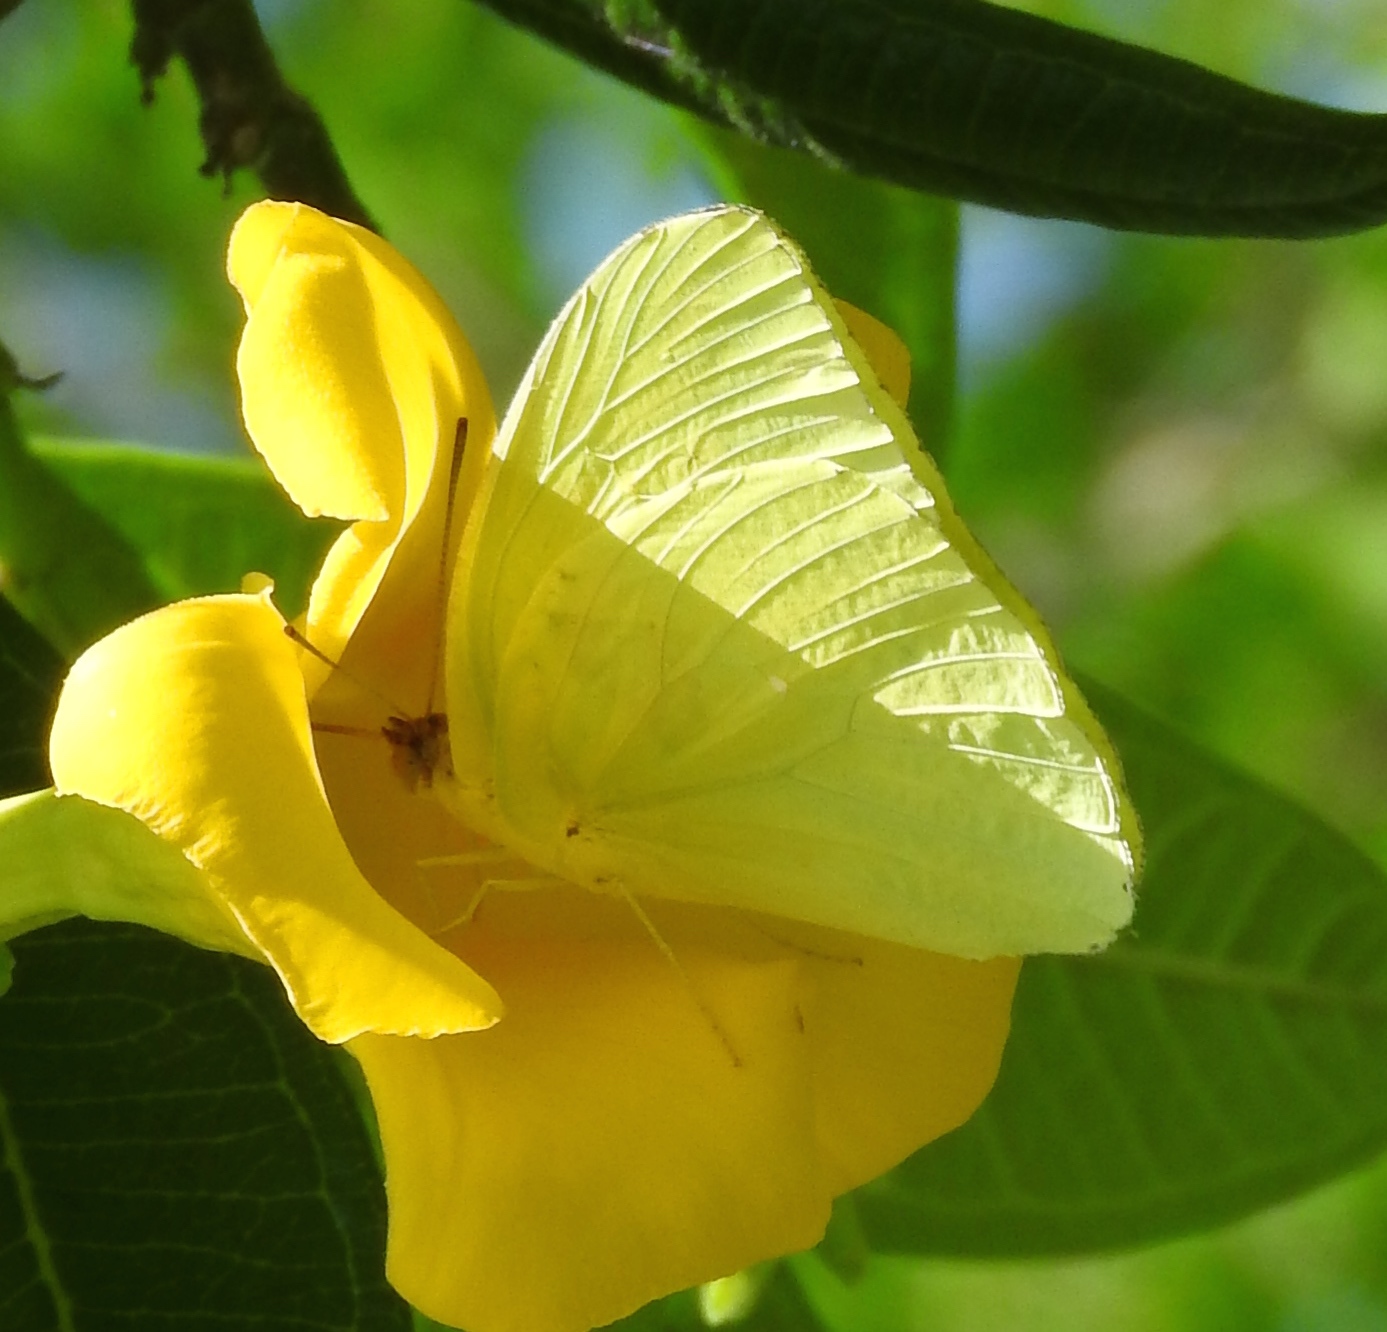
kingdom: Animalia
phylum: Arthropoda
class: Insecta
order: Lepidoptera
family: Pieridae
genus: Aphrissa
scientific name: Aphrissa statira
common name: Statira sulphur
